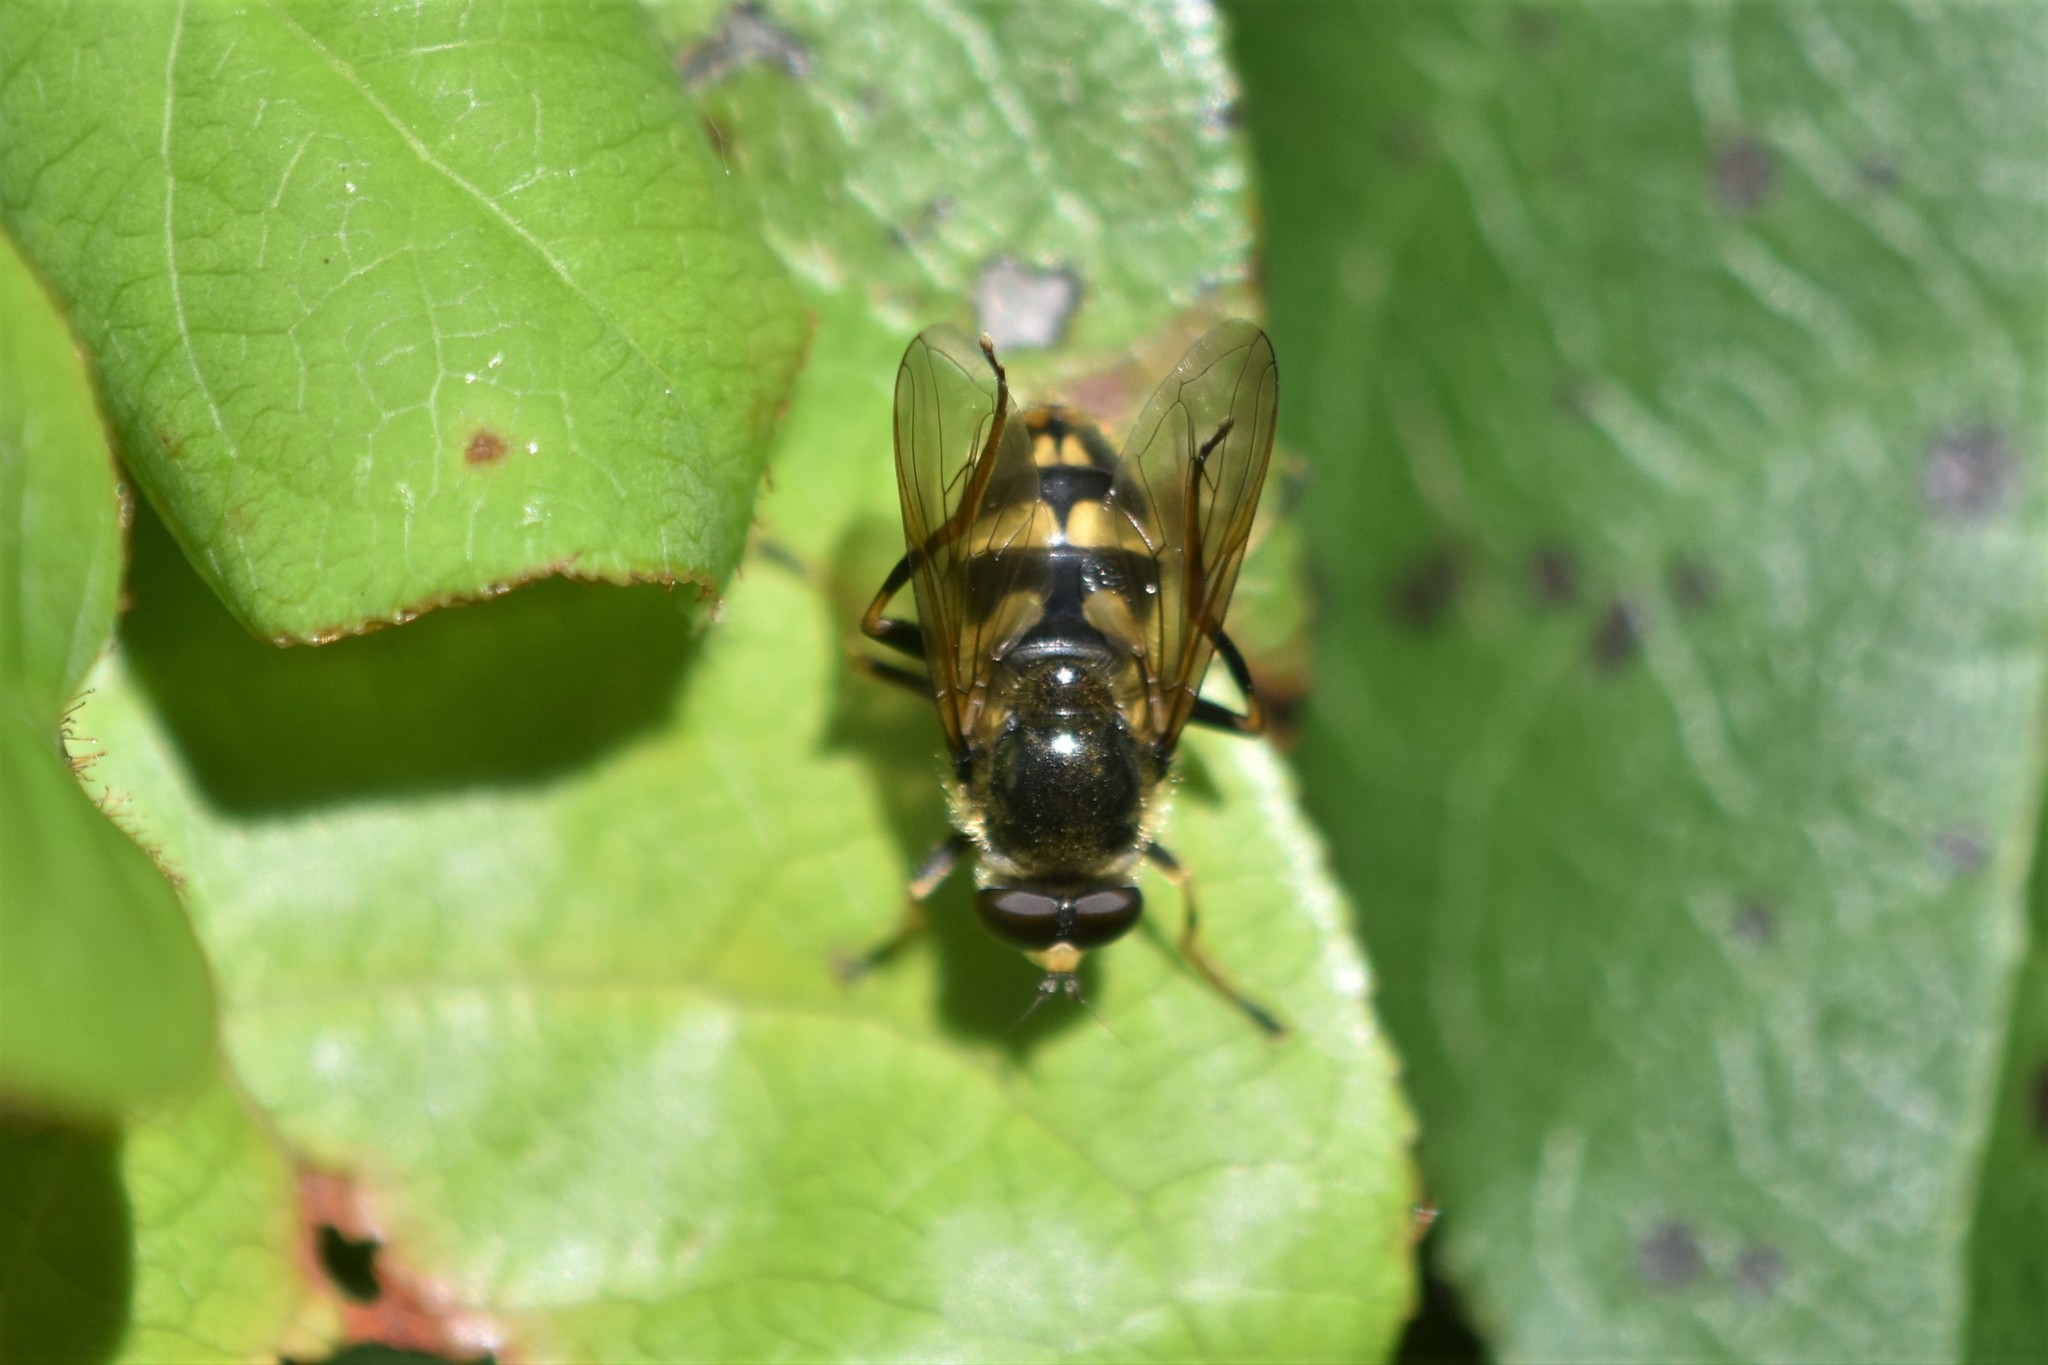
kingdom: Animalia
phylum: Arthropoda
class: Insecta
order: Diptera
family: Syrphidae
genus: Blera
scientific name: Blera scitula
